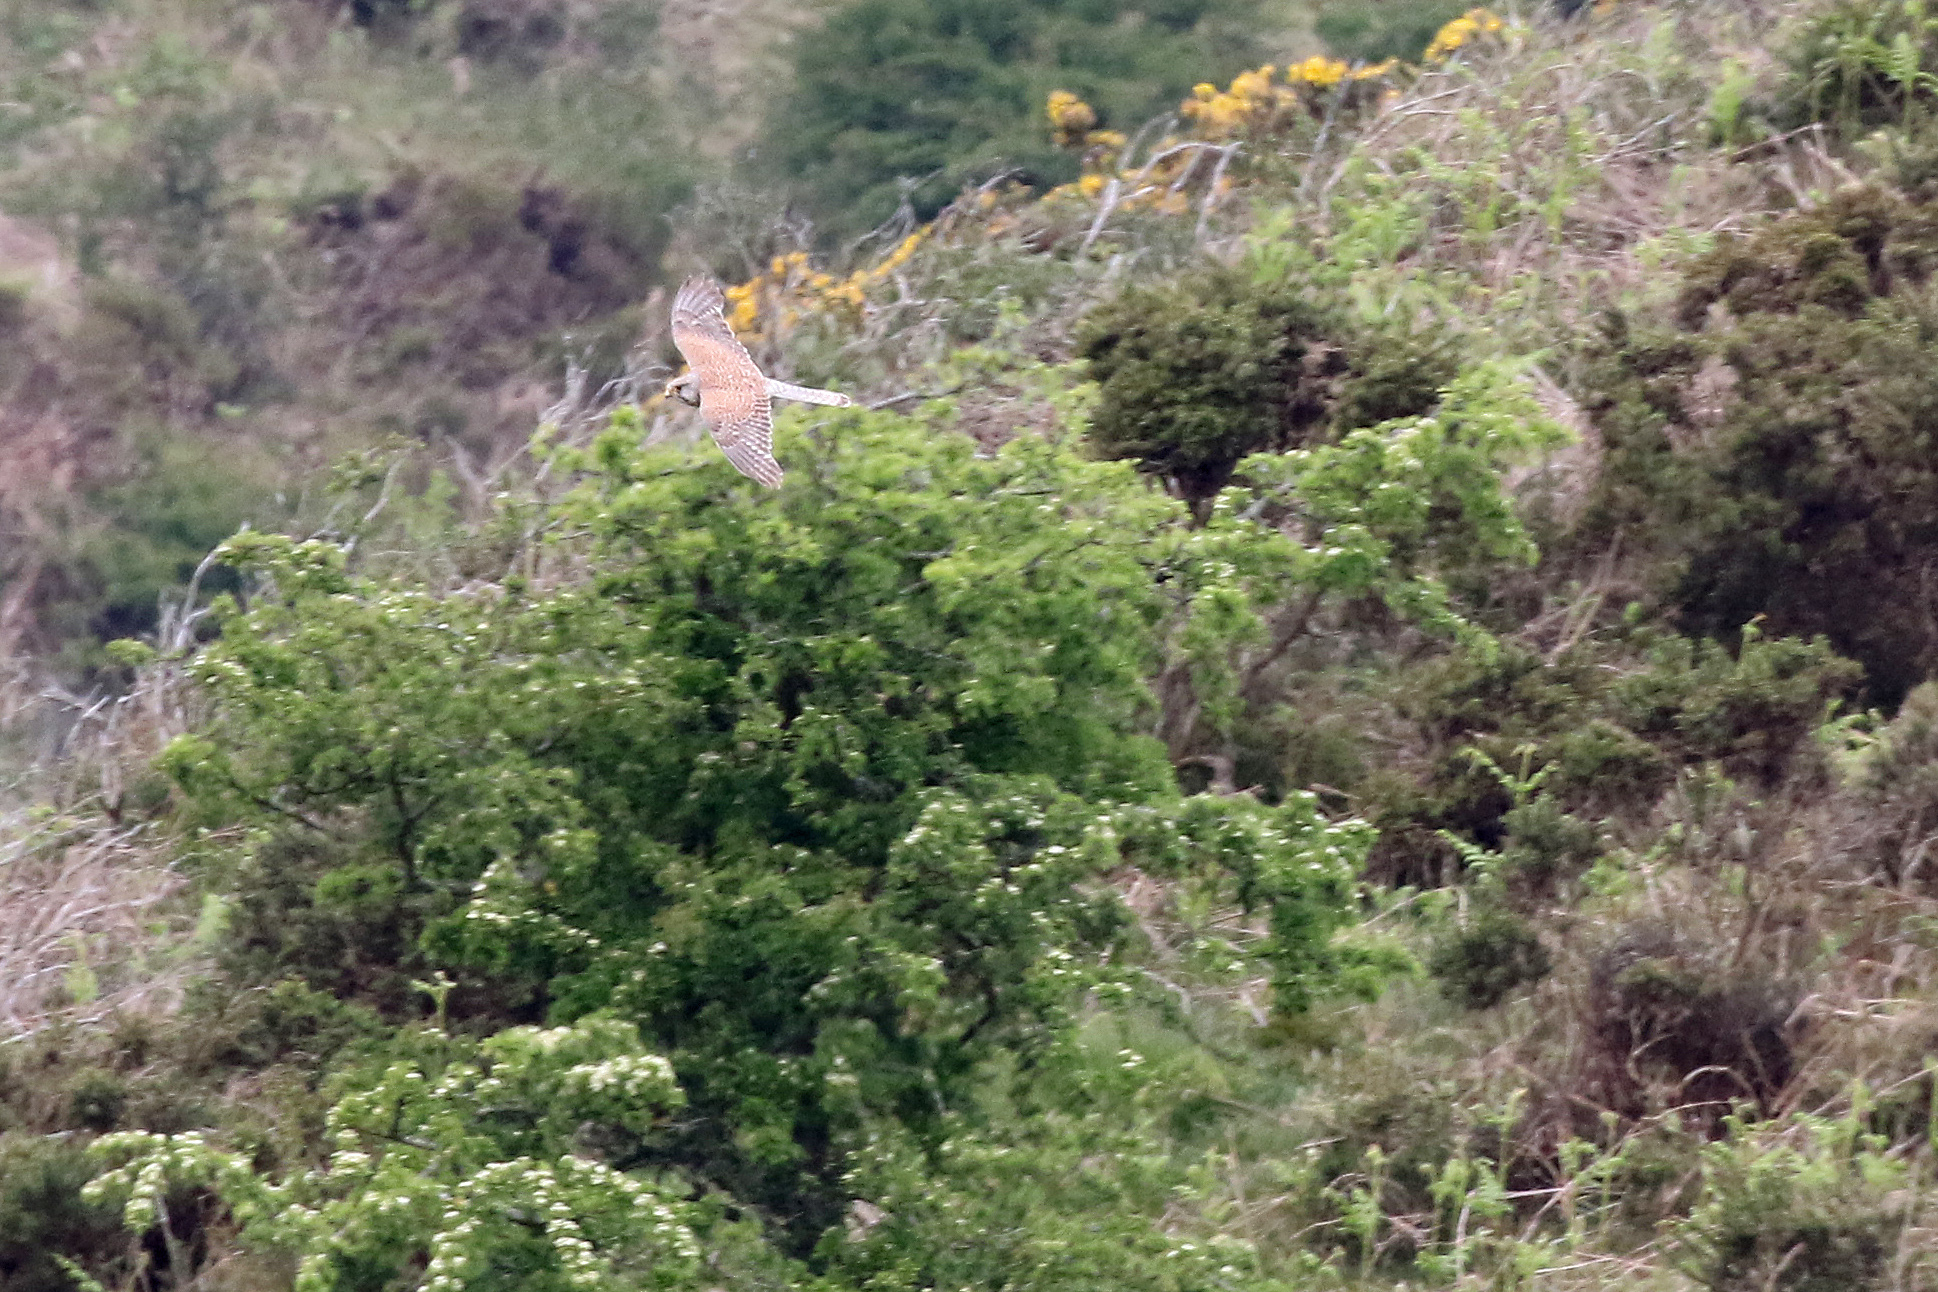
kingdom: Animalia
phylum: Chordata
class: Aves
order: Falconiformes
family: Falconidae
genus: Falco
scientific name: Falco tinnunculus
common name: Common kestrel
